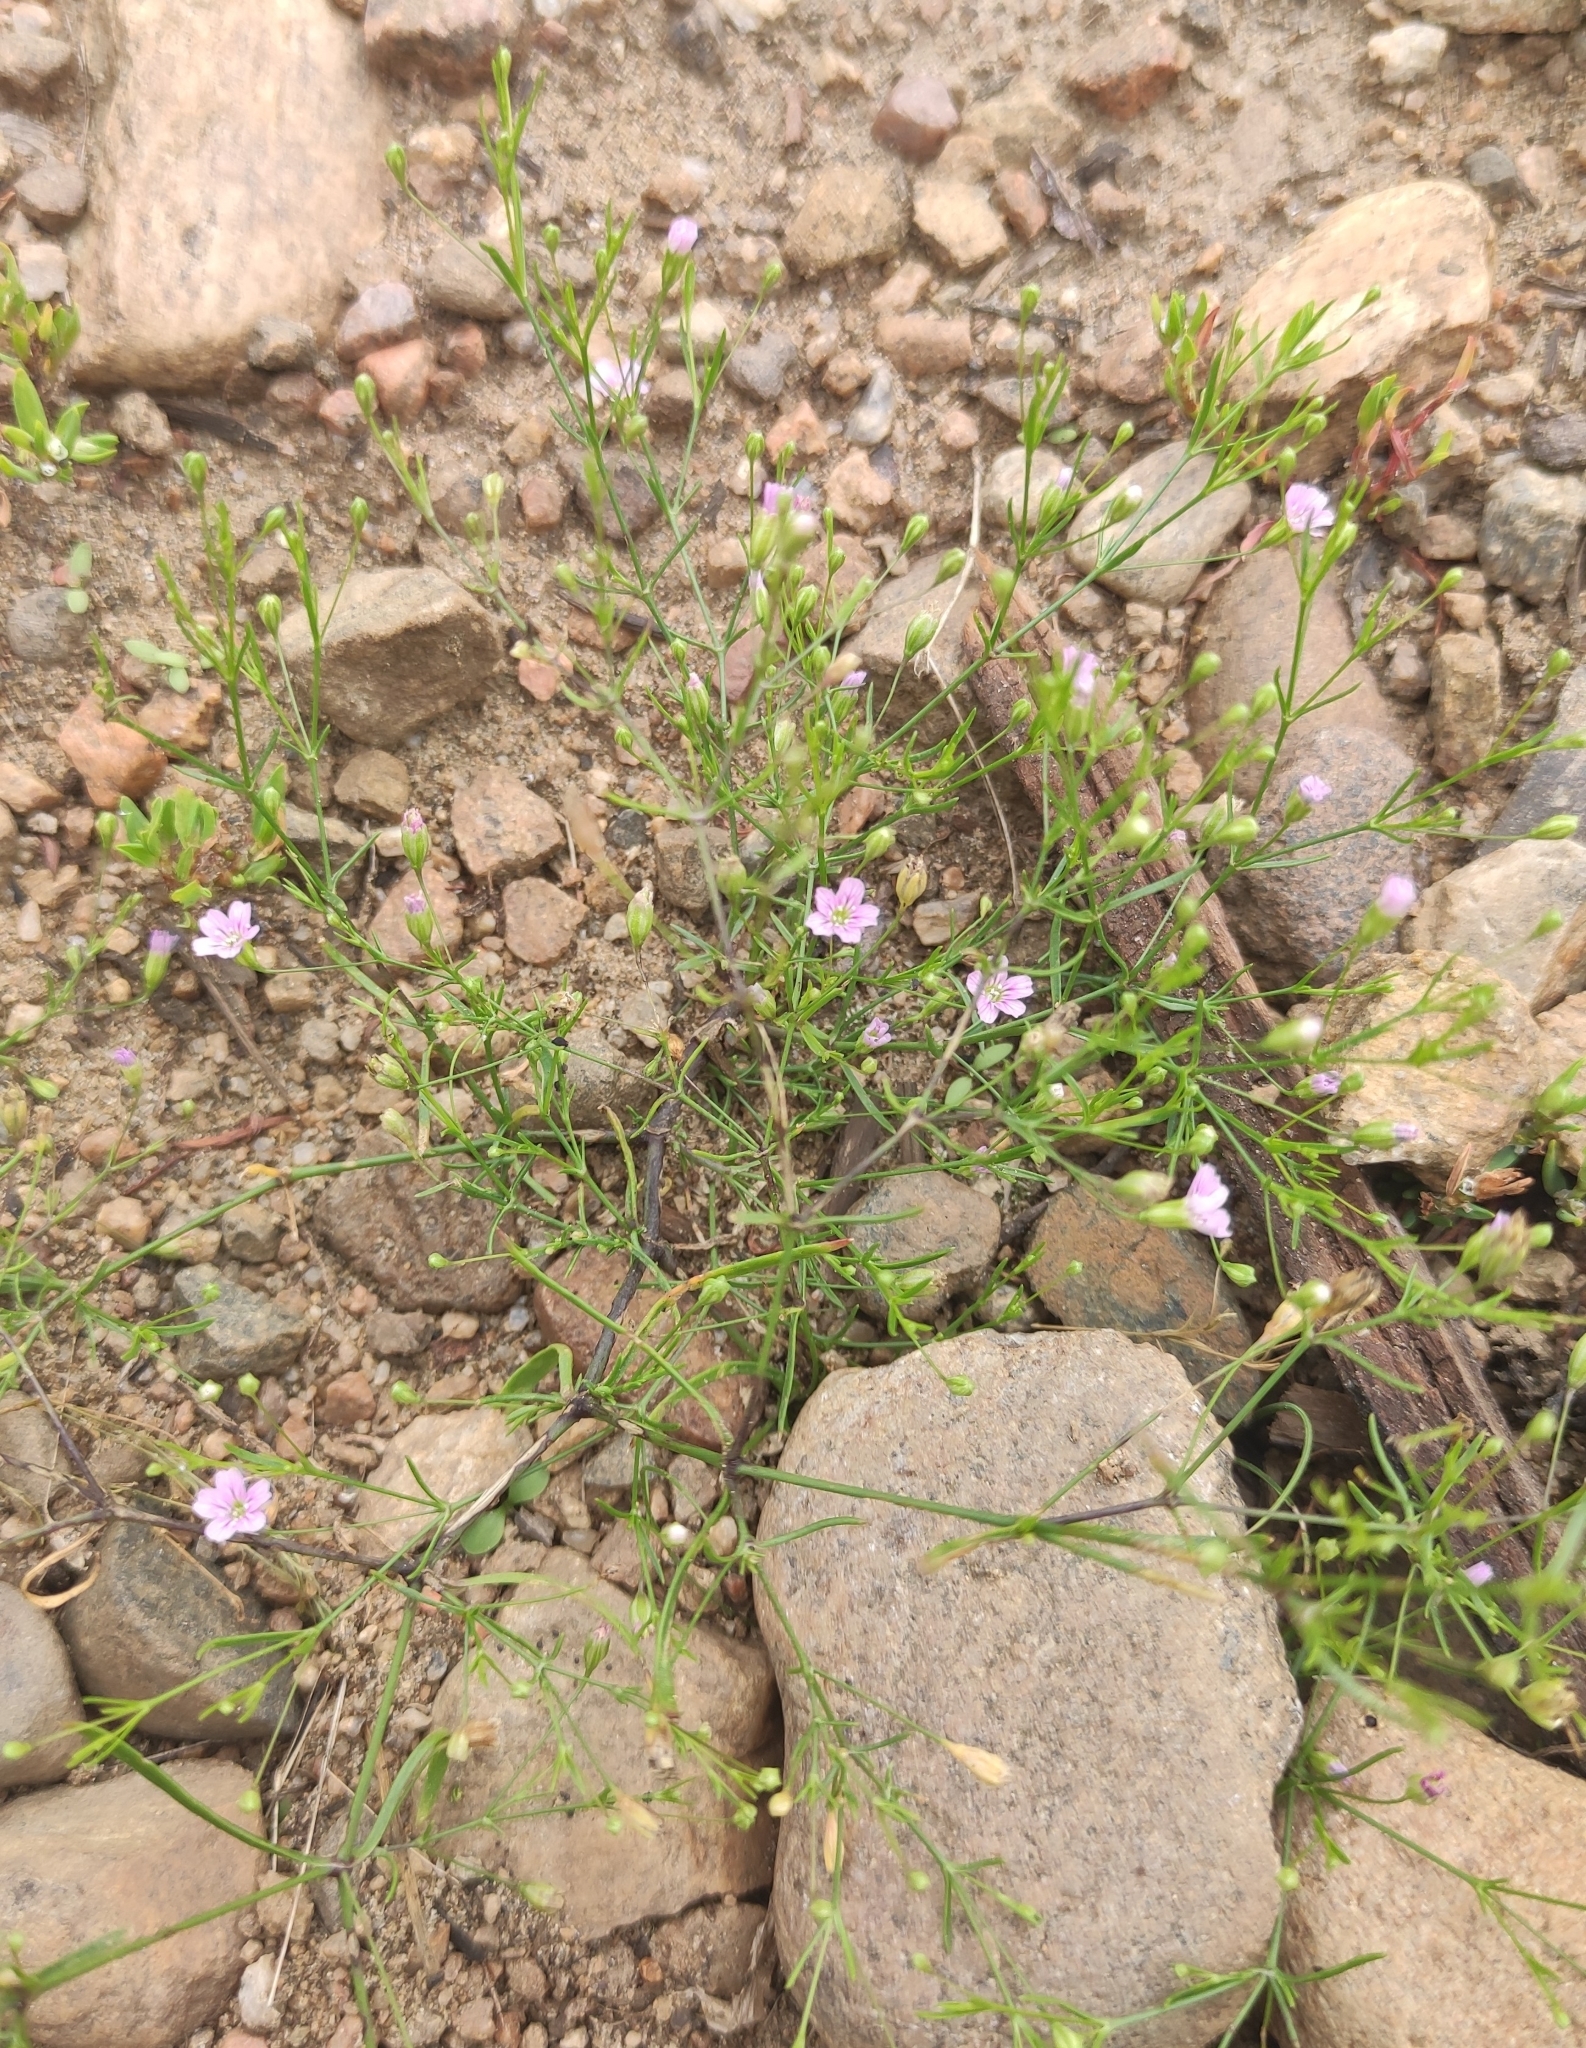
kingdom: Plantae
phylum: Tracheophyta
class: Magnoliopsida
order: Caryophyllales
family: Caryophyllaceae
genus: Psammophiliella
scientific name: Psammophiliella muralis
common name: Cushion baby's-breath
